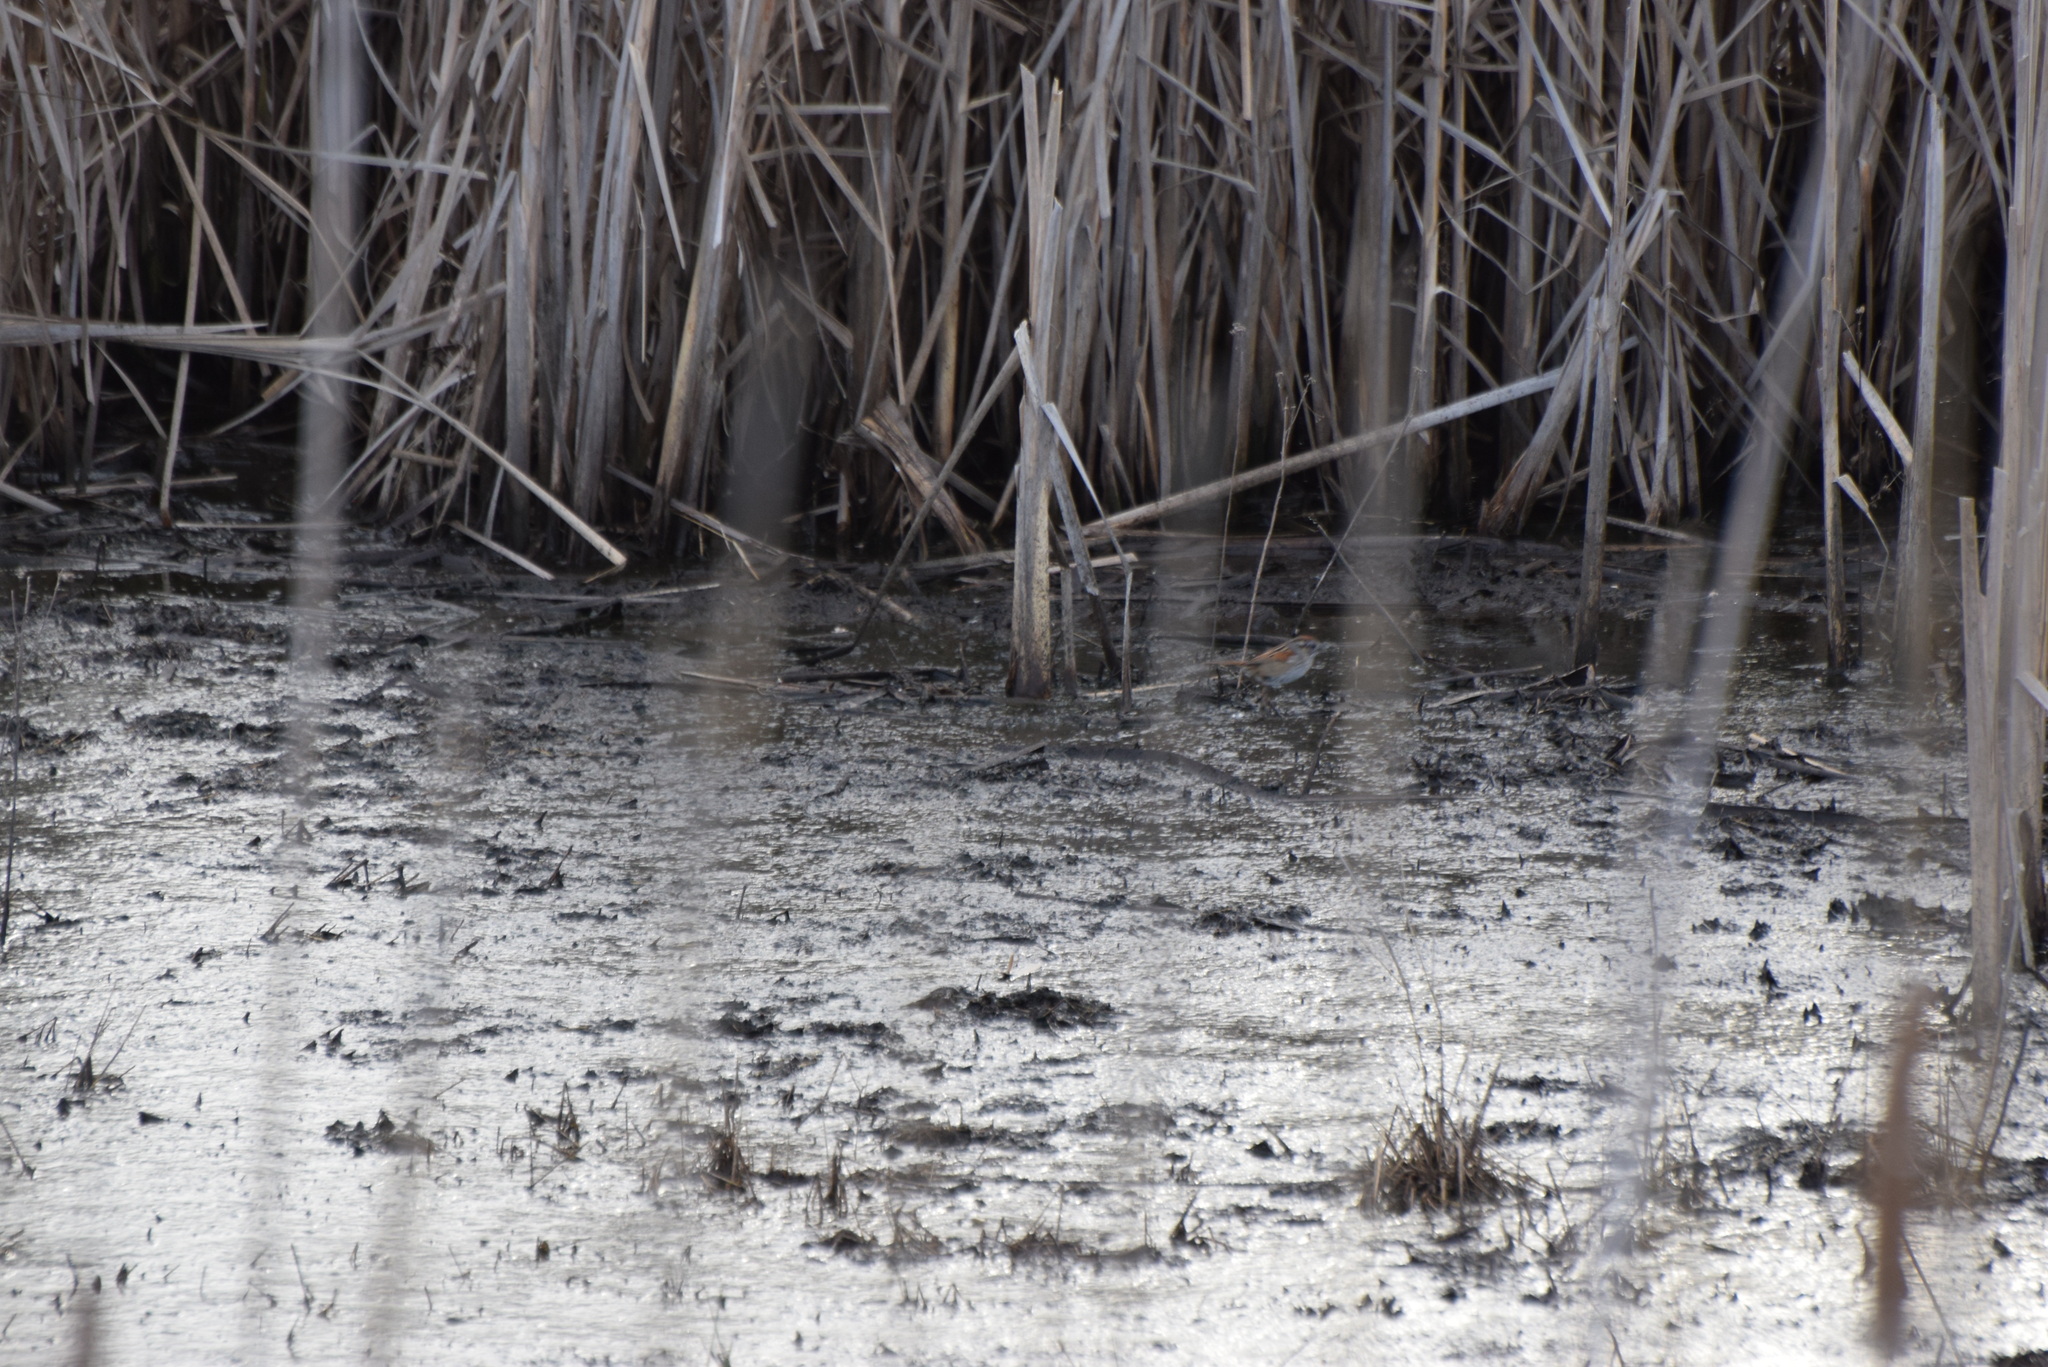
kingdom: Animalia
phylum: Chordata
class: Aves
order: Passeriformes
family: Passerellidae
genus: Melospiza
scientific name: Melospiza georgiana
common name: Swamp sparrow
